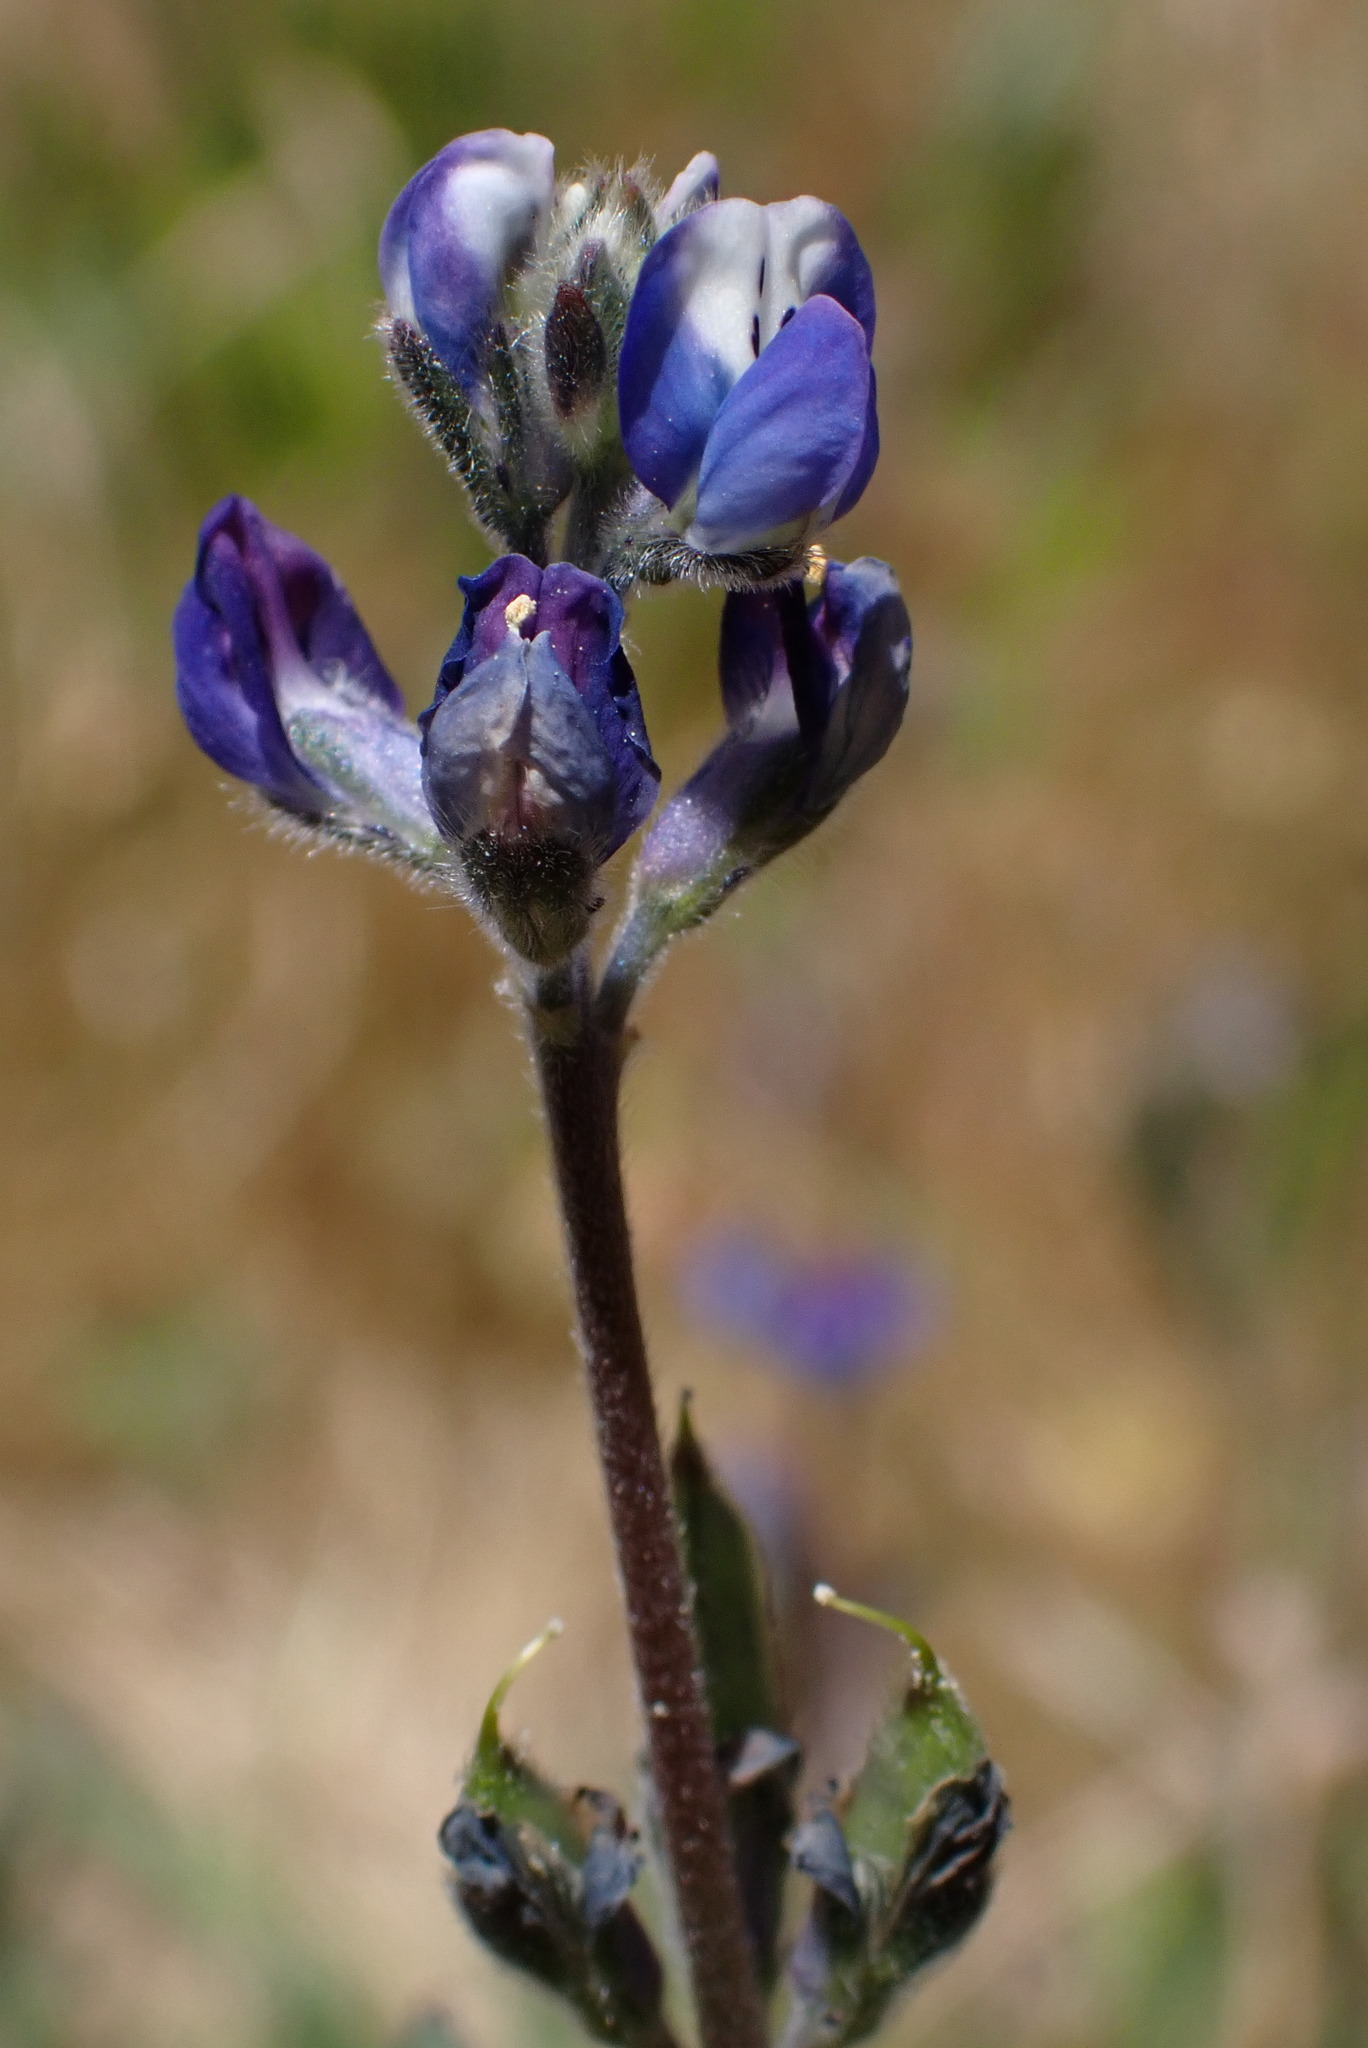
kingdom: Plantae
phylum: Tracheophyta
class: Magnoliopsida
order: Fabales
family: Fabaceae
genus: Lupinus
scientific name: Lupinus bicolor
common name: Miniature lupine
